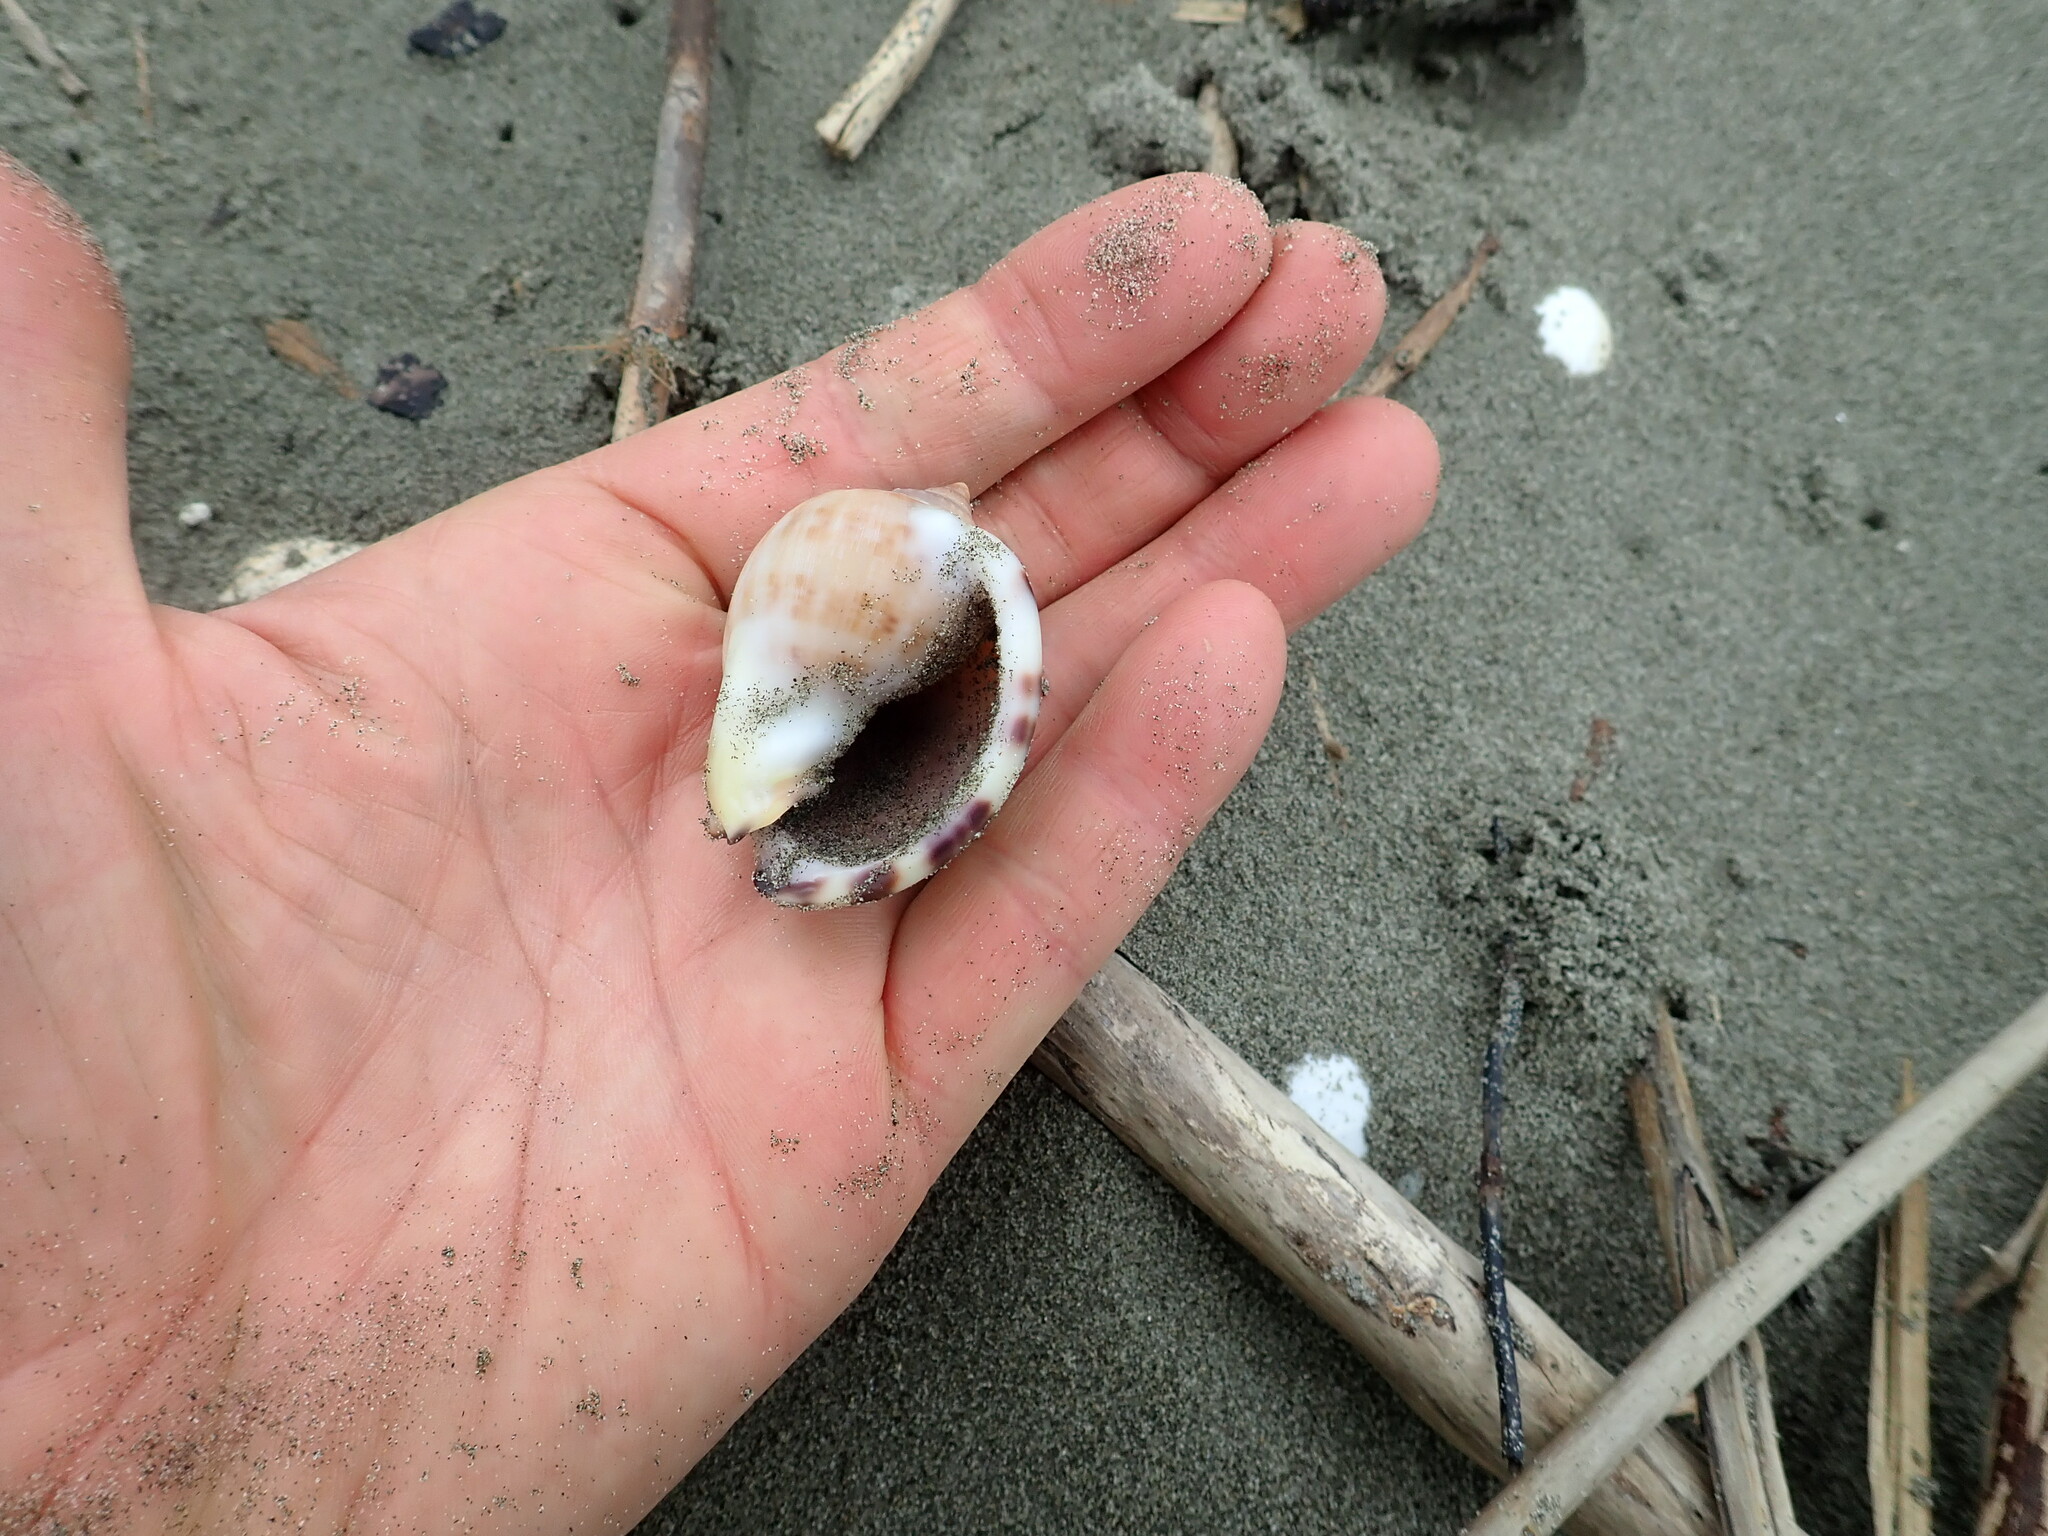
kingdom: Animalia
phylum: Mollusca
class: Gastropoda
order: Littorinimorpha
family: Cassidae
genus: Semicassis
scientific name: Semicassis pyrum
